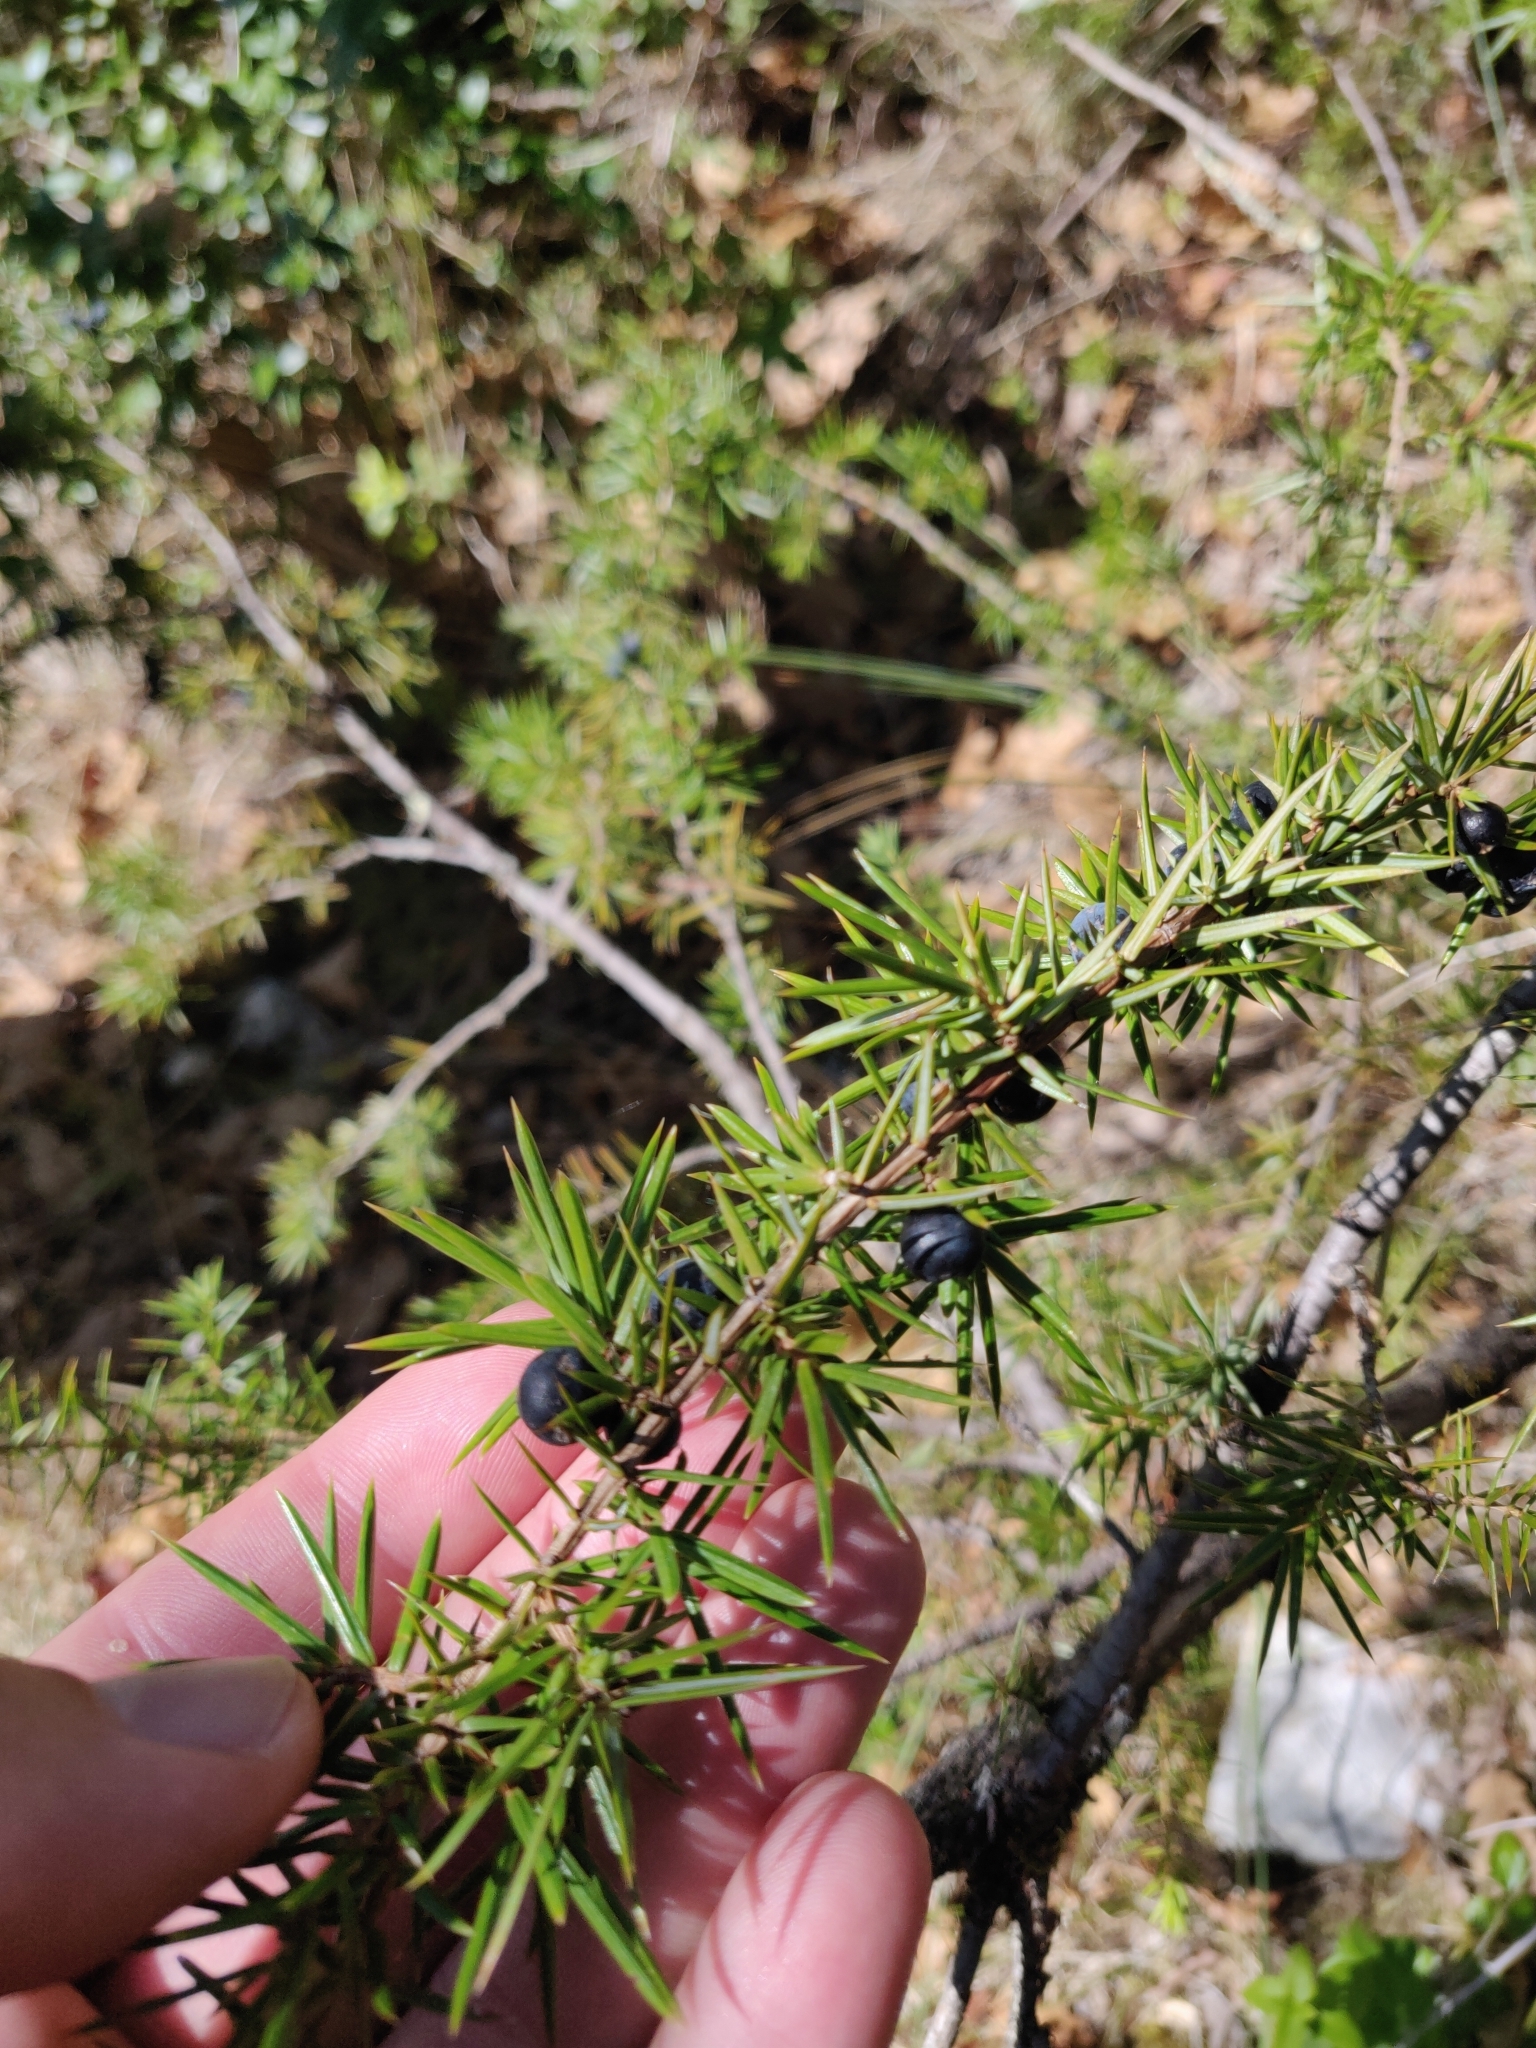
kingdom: Plantae
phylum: Tracheophyta
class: Pinopsida
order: Pinales
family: Cupressaceae
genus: Juniperus
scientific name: Juniperus communis
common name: Common juniper
